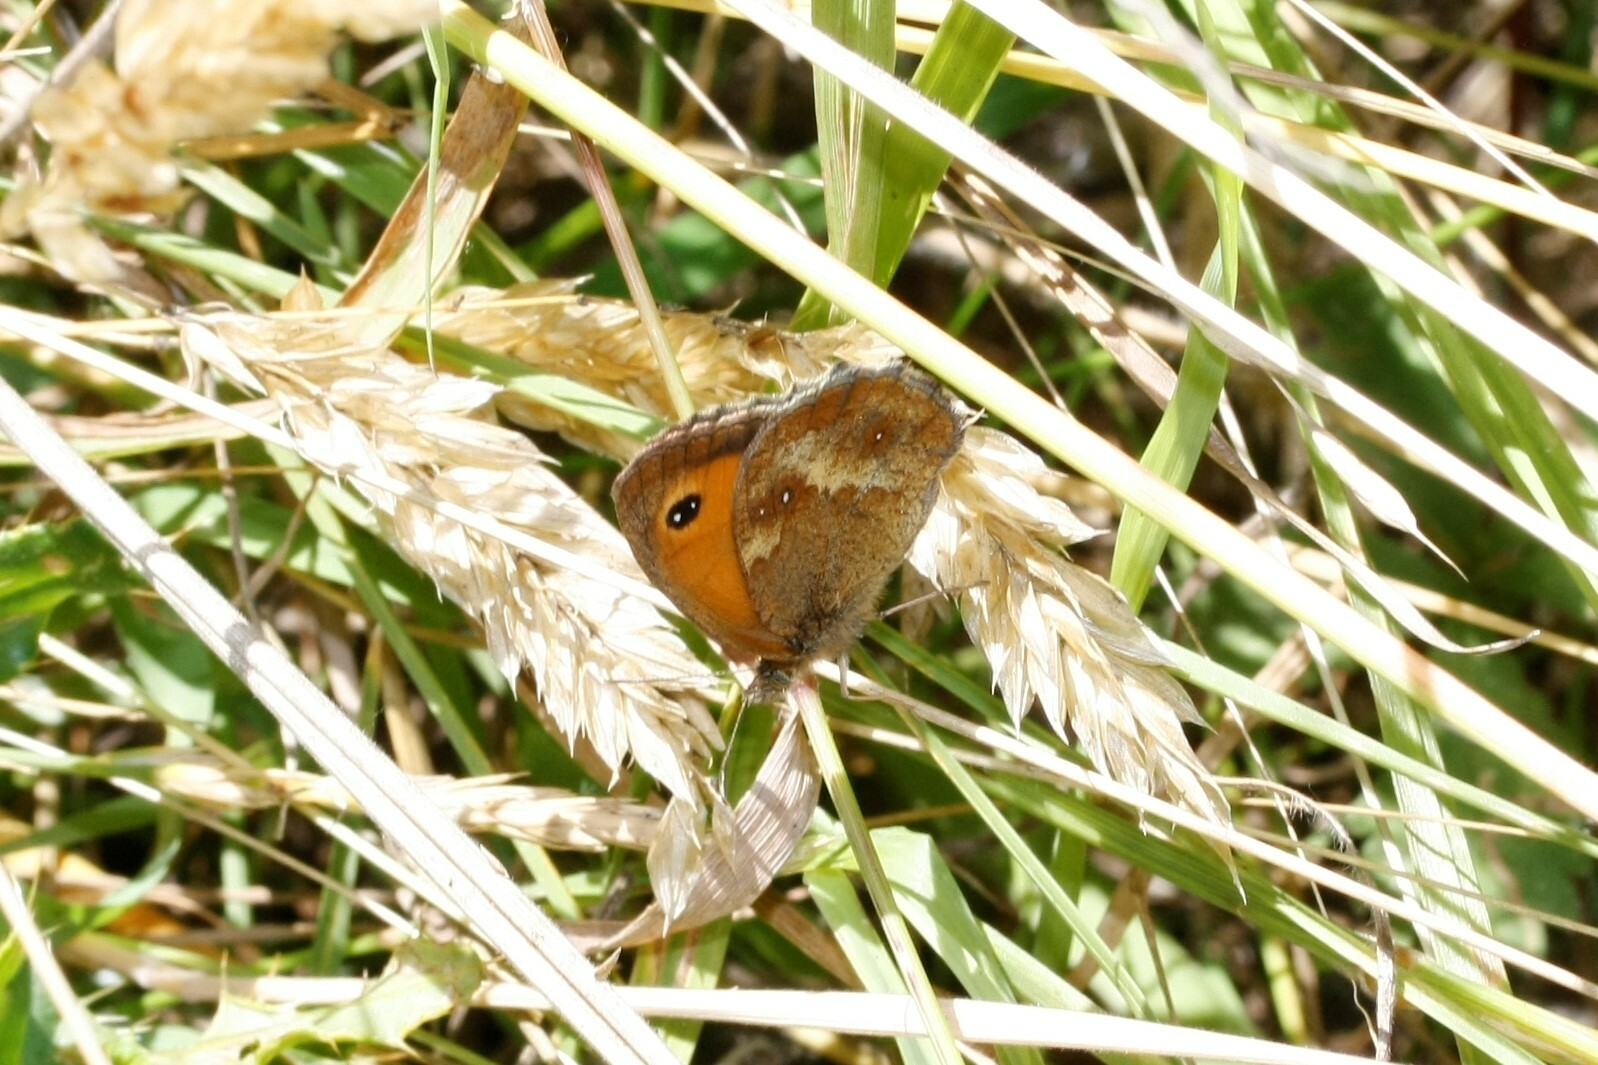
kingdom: Animalia
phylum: Arthropoda
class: Insecta
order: Lepidoptera
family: Nymphalidae
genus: Pyronia
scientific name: Pyronia tithonus
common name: Gatekeeper
